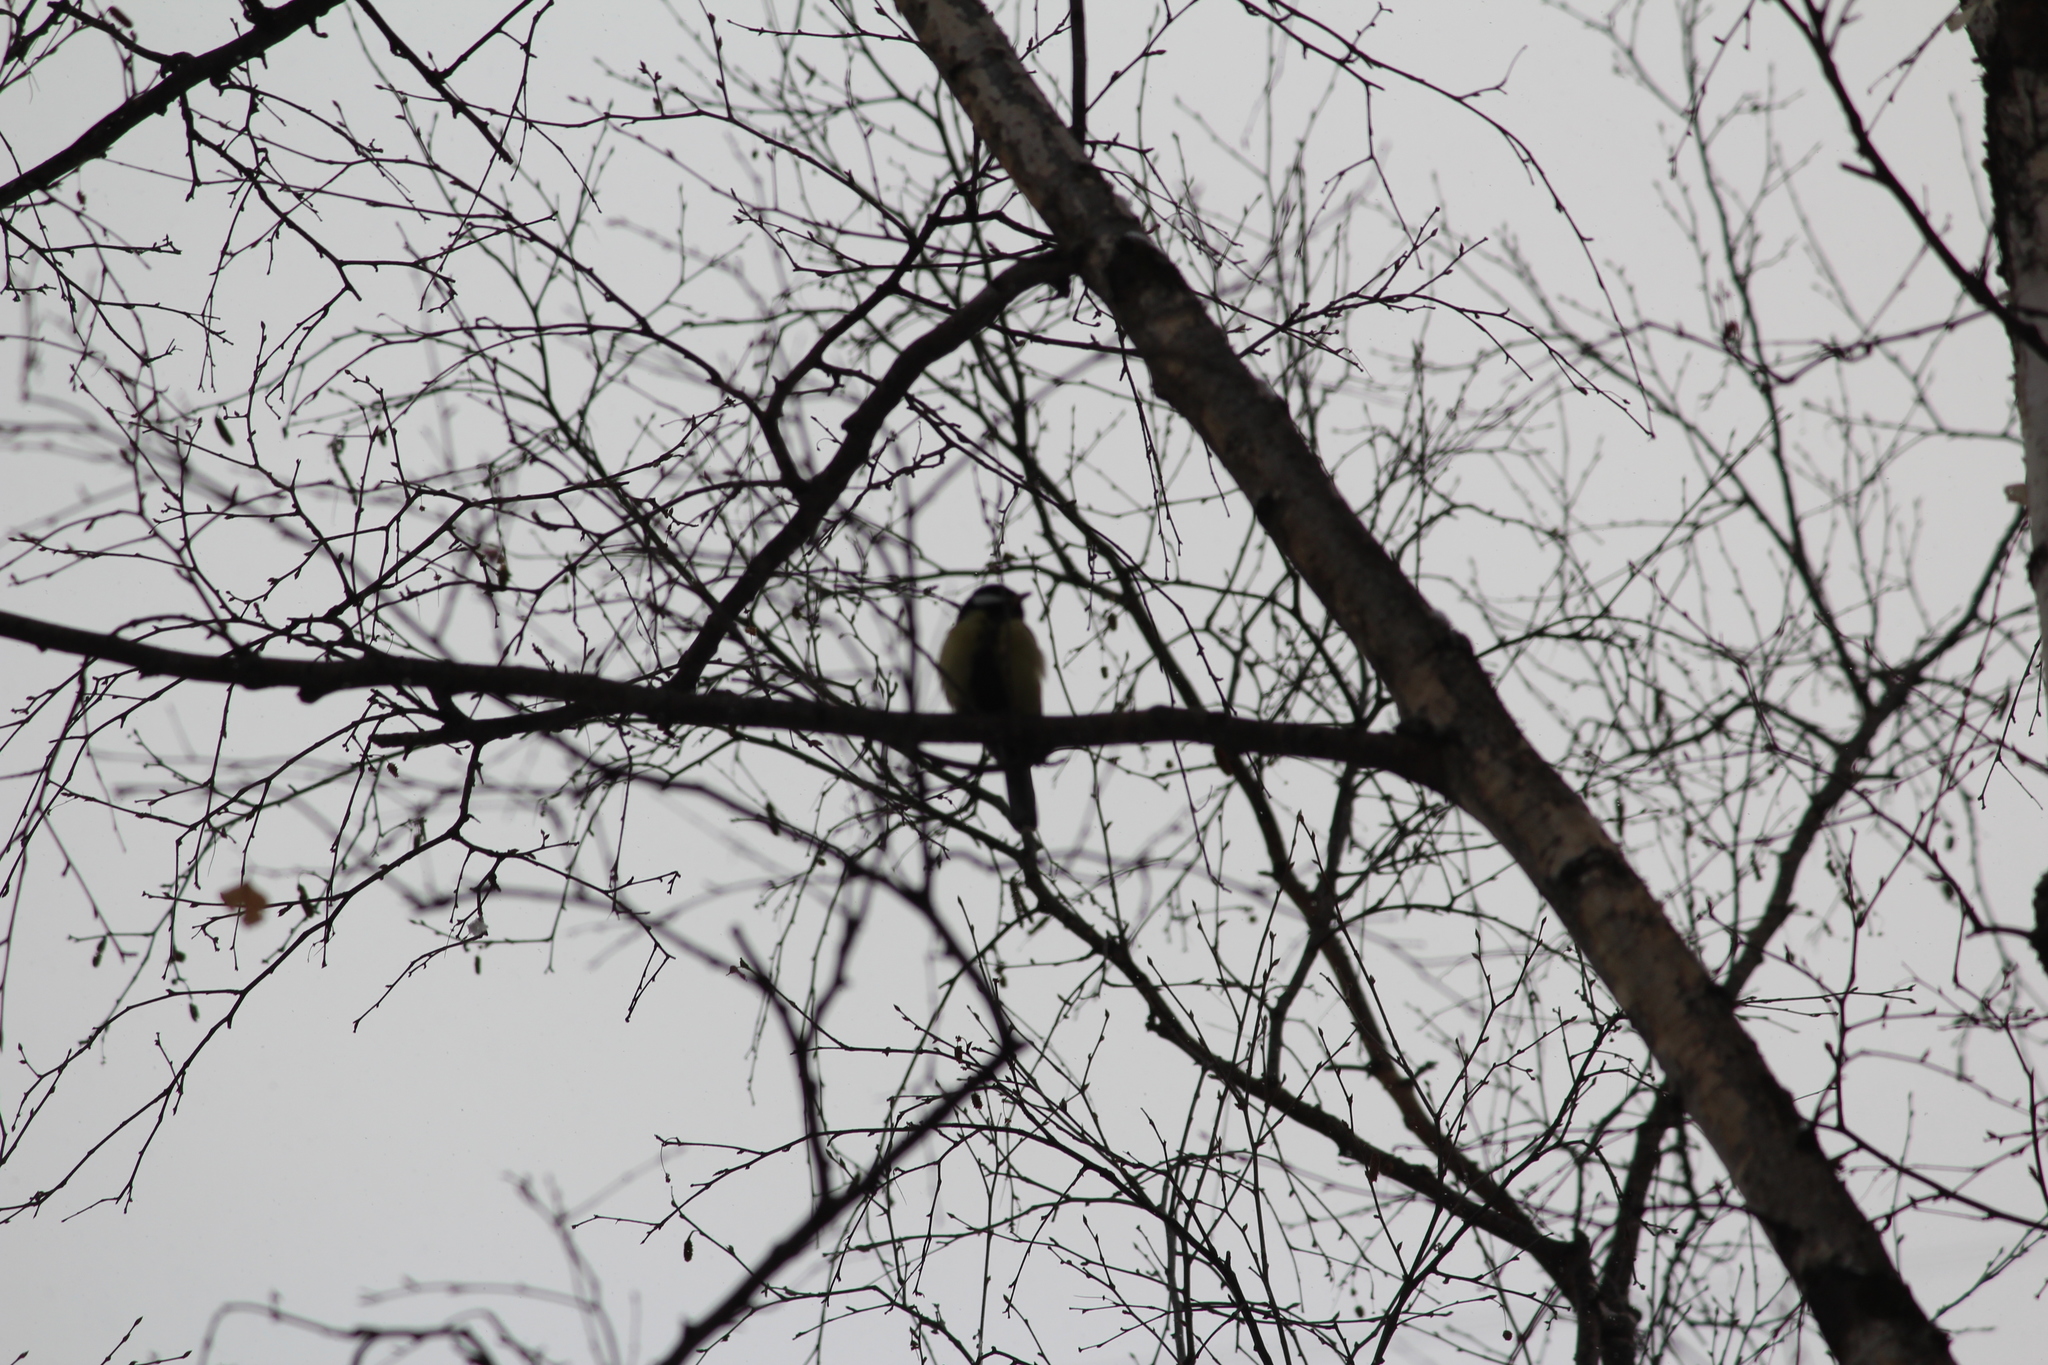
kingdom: Animalia
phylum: Chordata
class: Aves
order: Passeriformes
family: Paridae
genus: Parus
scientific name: Parus major
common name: Great tit
